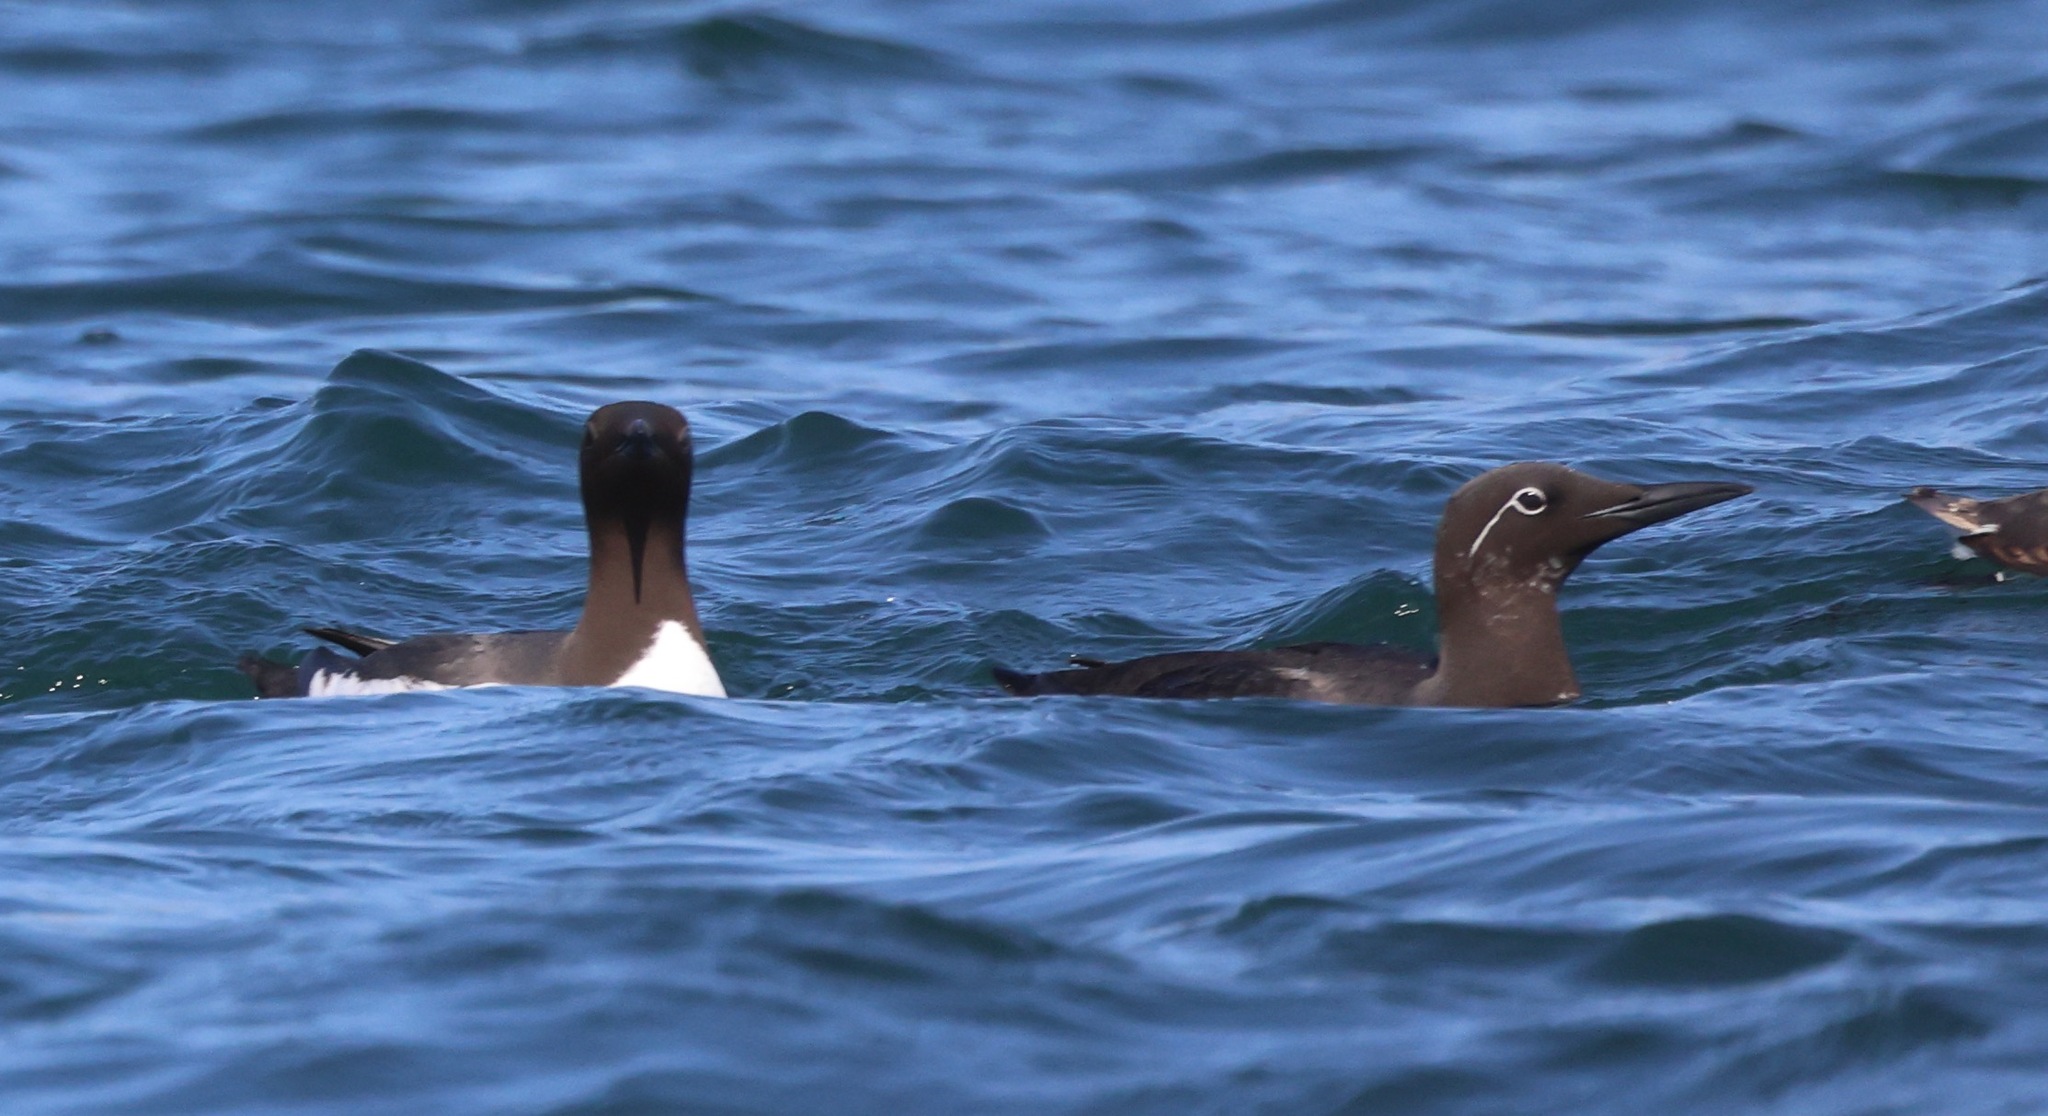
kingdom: Animalia
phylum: Chordata
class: Aves
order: Charadriiformes
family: Alcidae
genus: Uria
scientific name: Uria aalge
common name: Common murre
